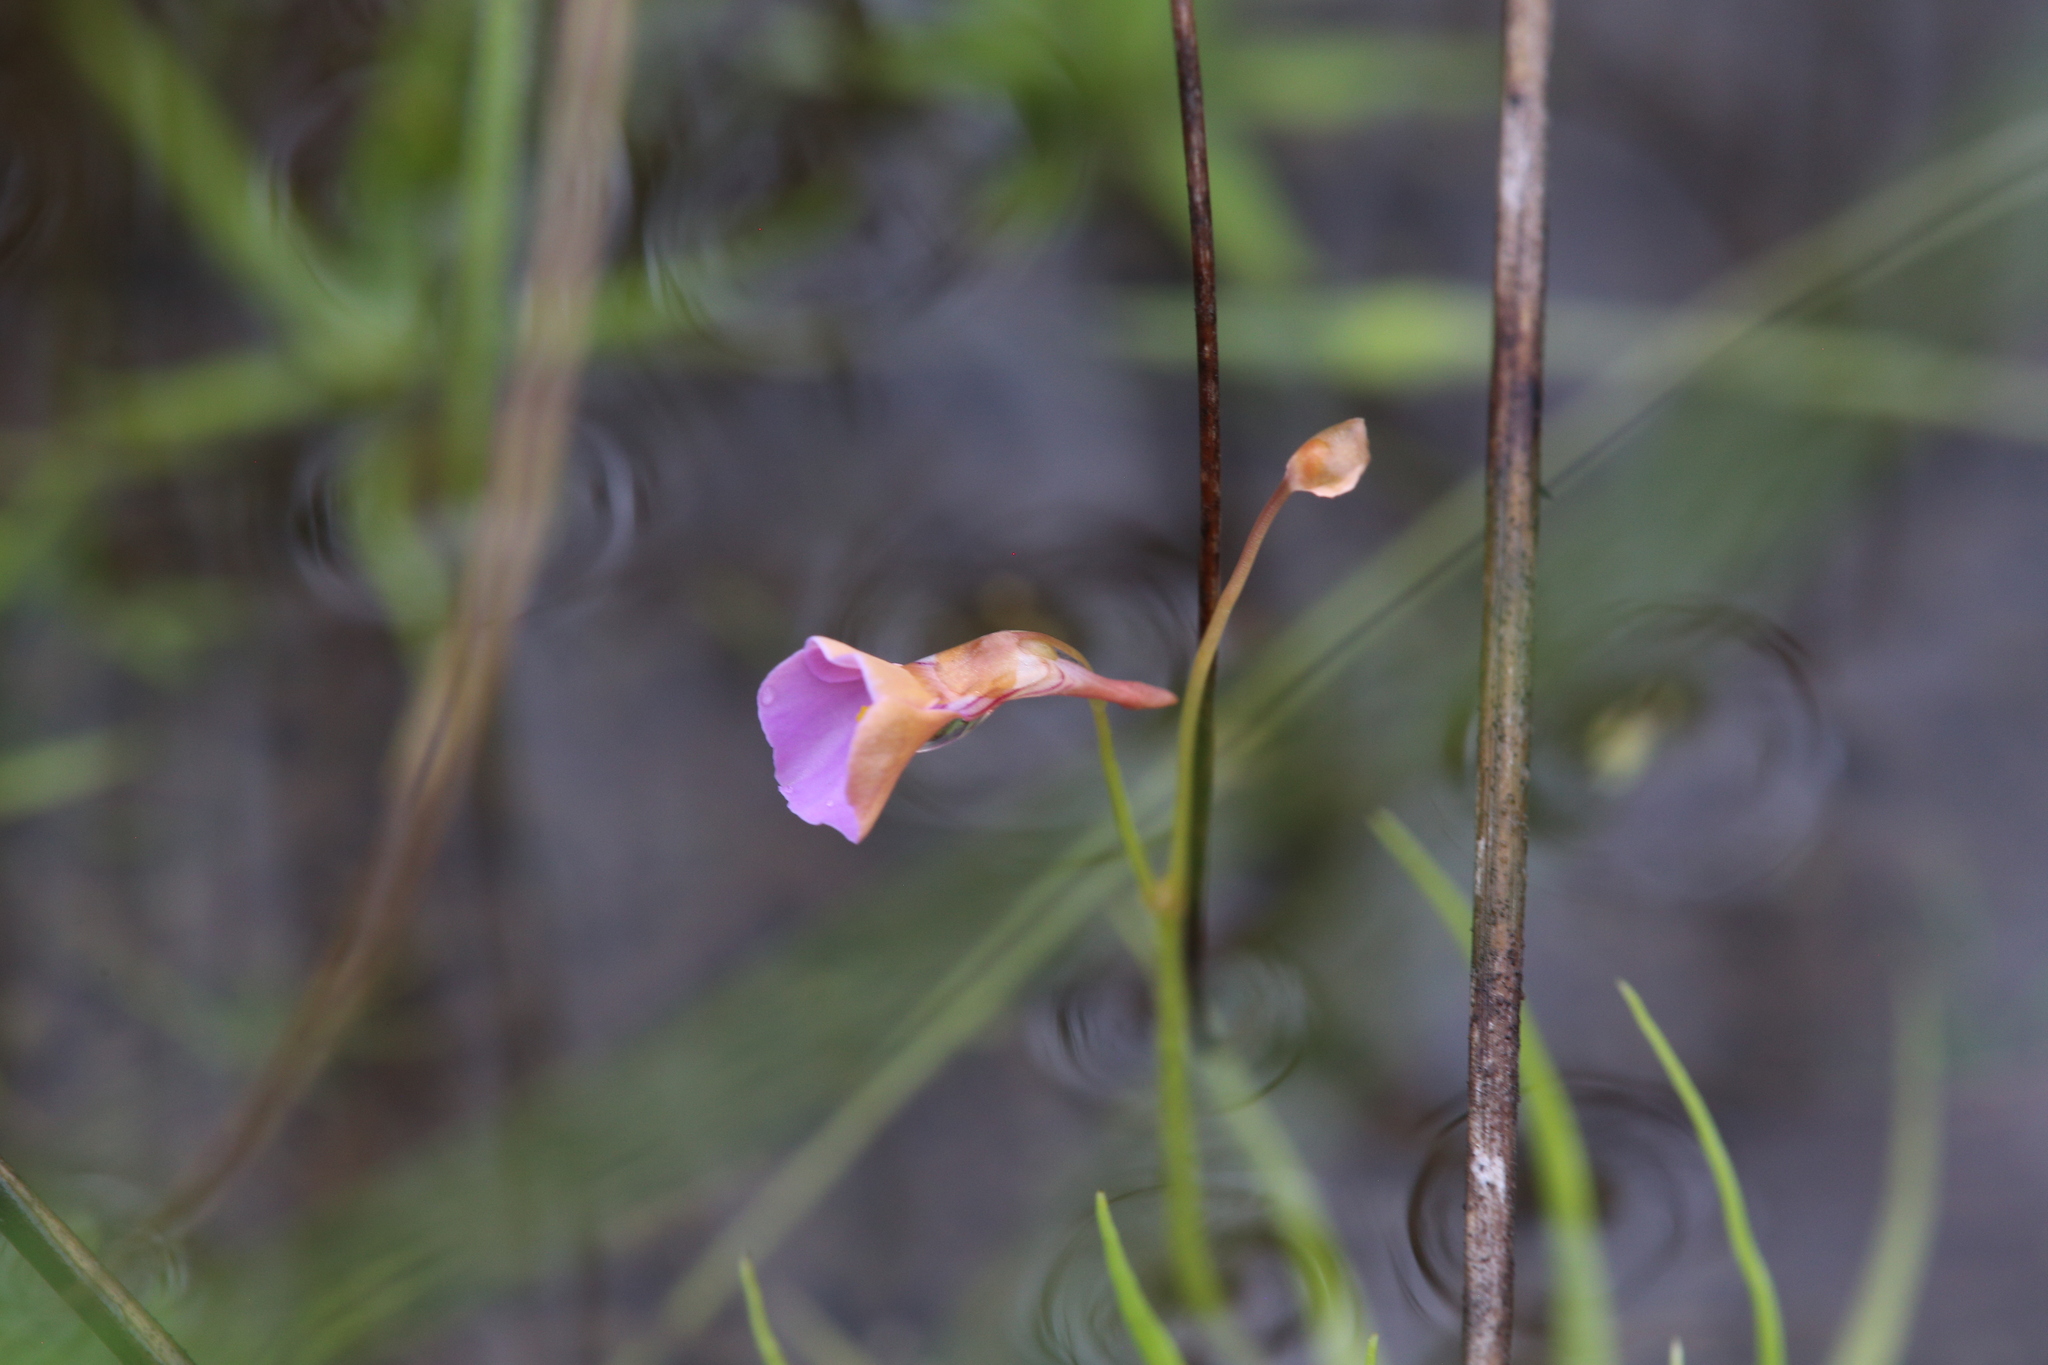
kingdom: Plantae
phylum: Tracheophyta
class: Magnoliopsida
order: Lamiales
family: Lentibulariaceae
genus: Utricularia
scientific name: Utricularia lasiocaulis
